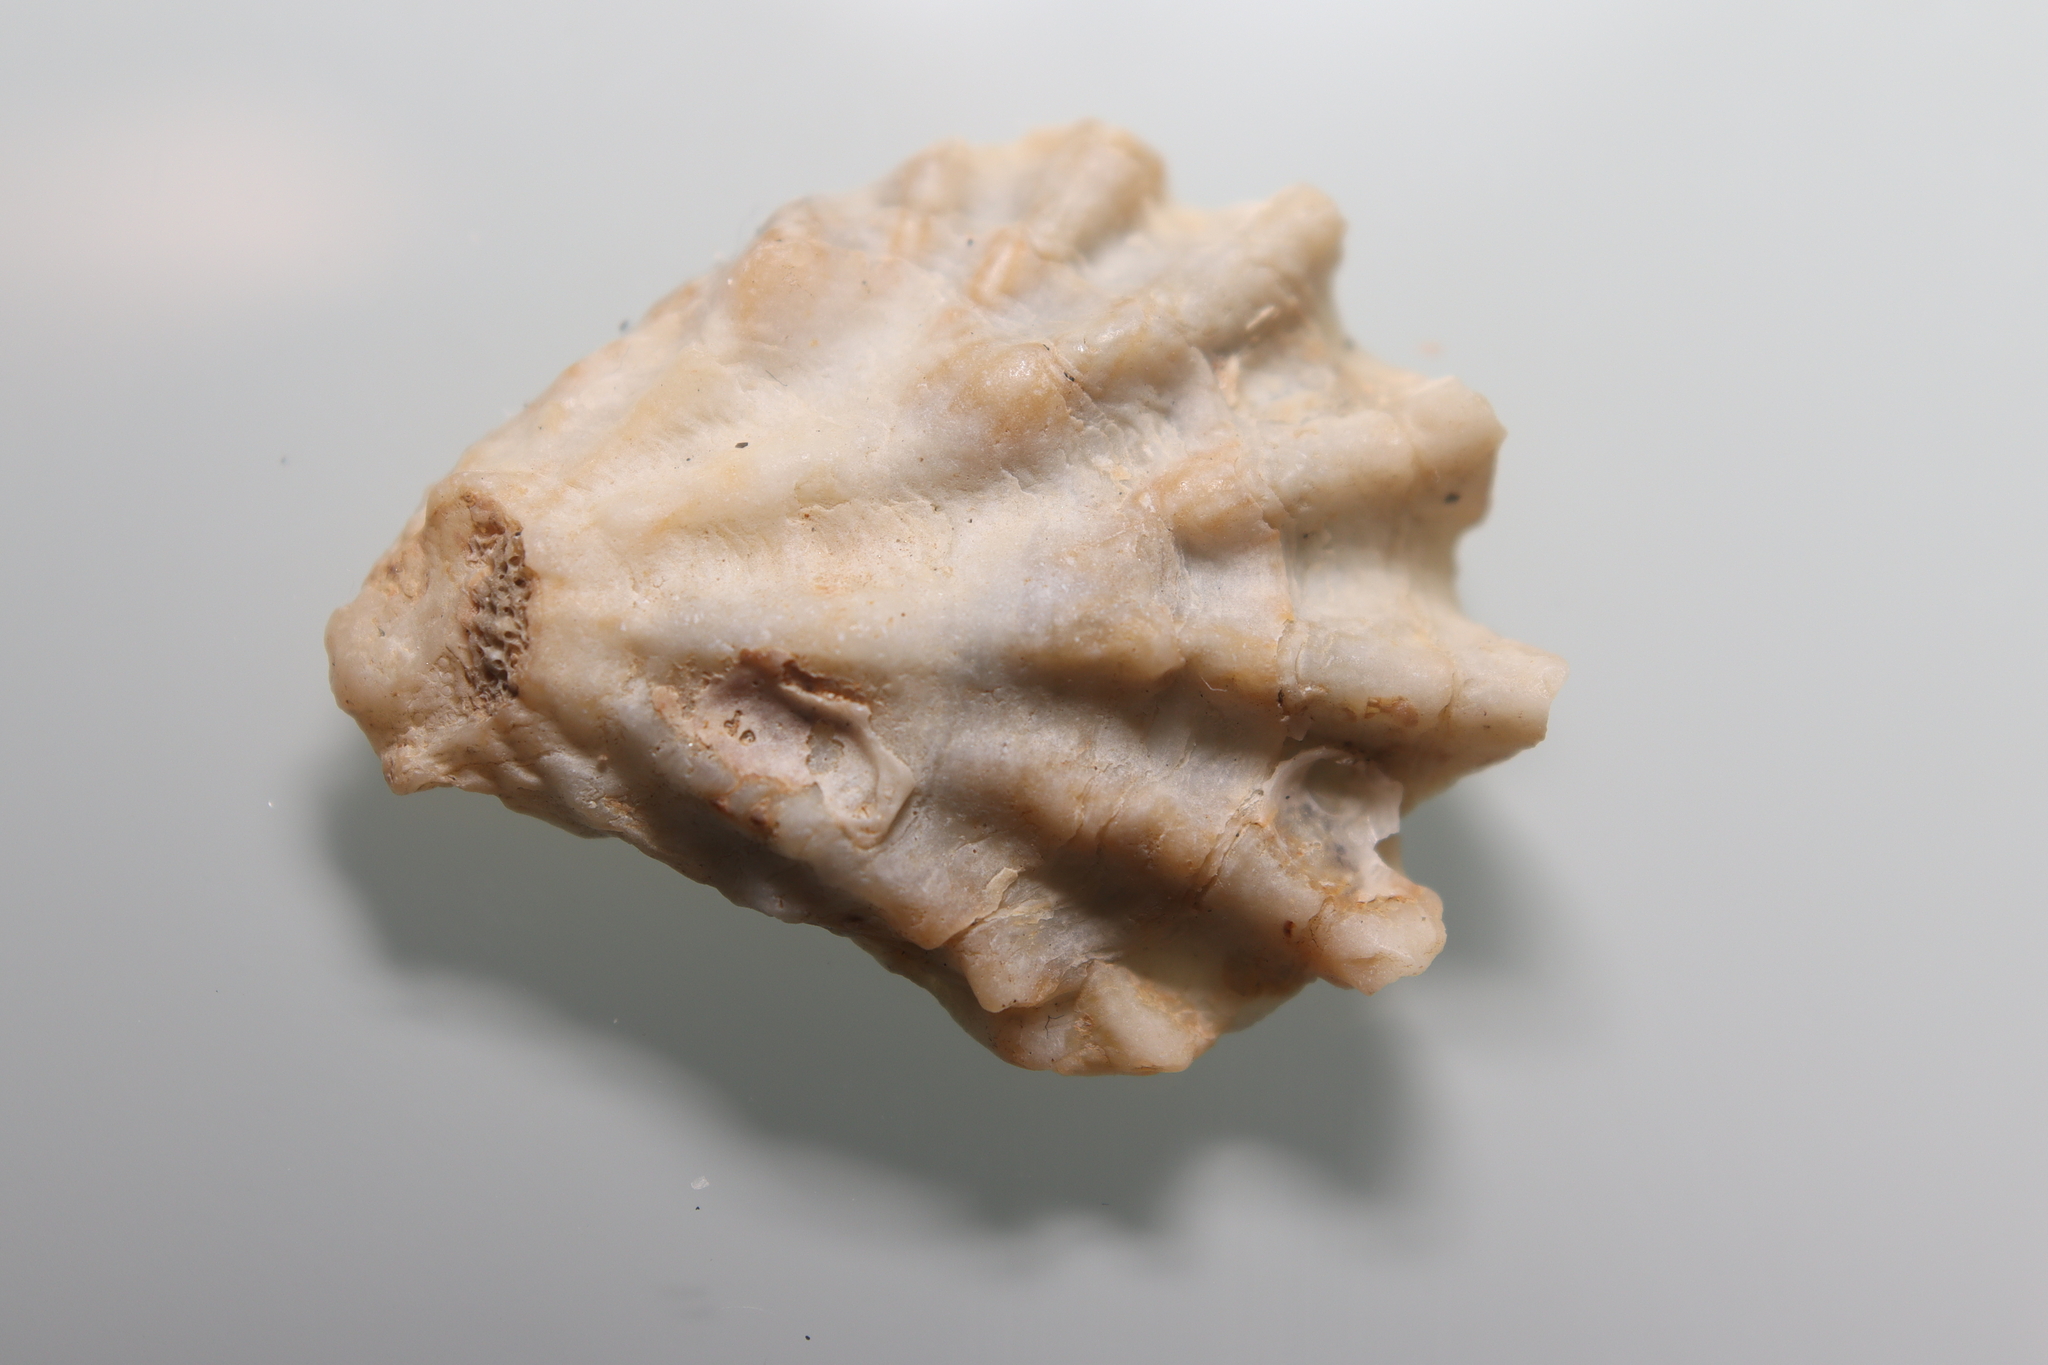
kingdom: Animalia
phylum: Mollusca
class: Bivalvia
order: Pectinida
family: Plicatulidae
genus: Plicatula
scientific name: Plicatula gibbosa
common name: Atlantic kitten's paw
